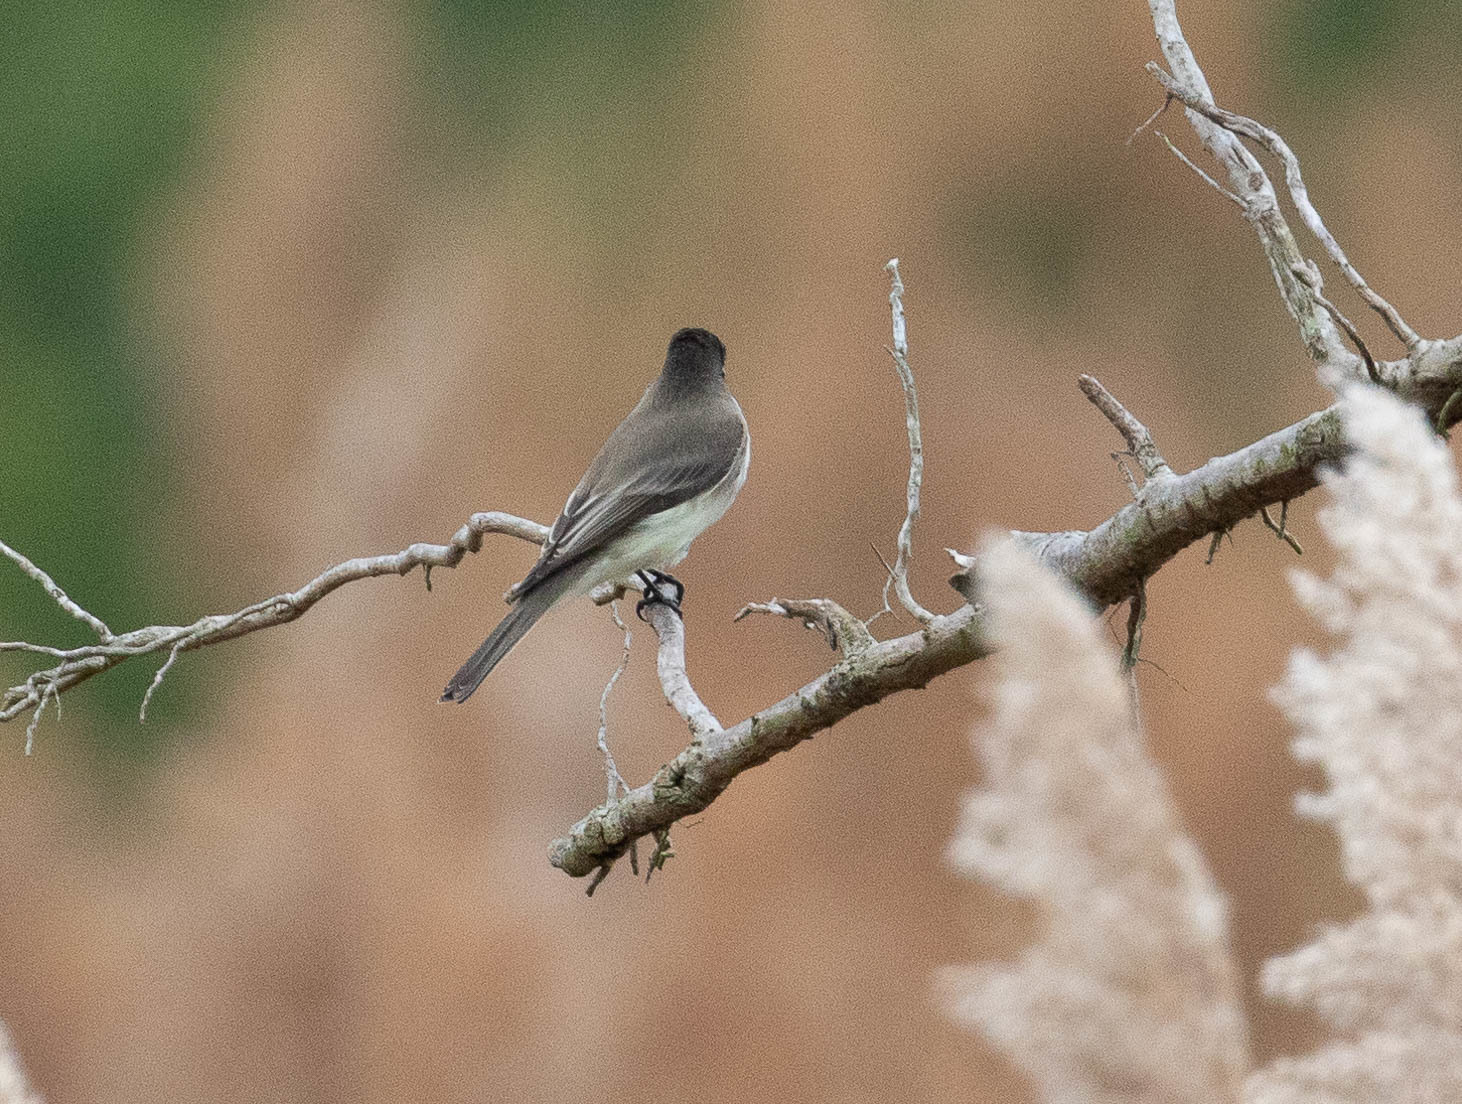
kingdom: Animalia
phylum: Chordata
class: Aves
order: Passeriformes
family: Tyrannidae
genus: Sayornis
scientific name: Sayornis phoebe
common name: Eastern phoebe
